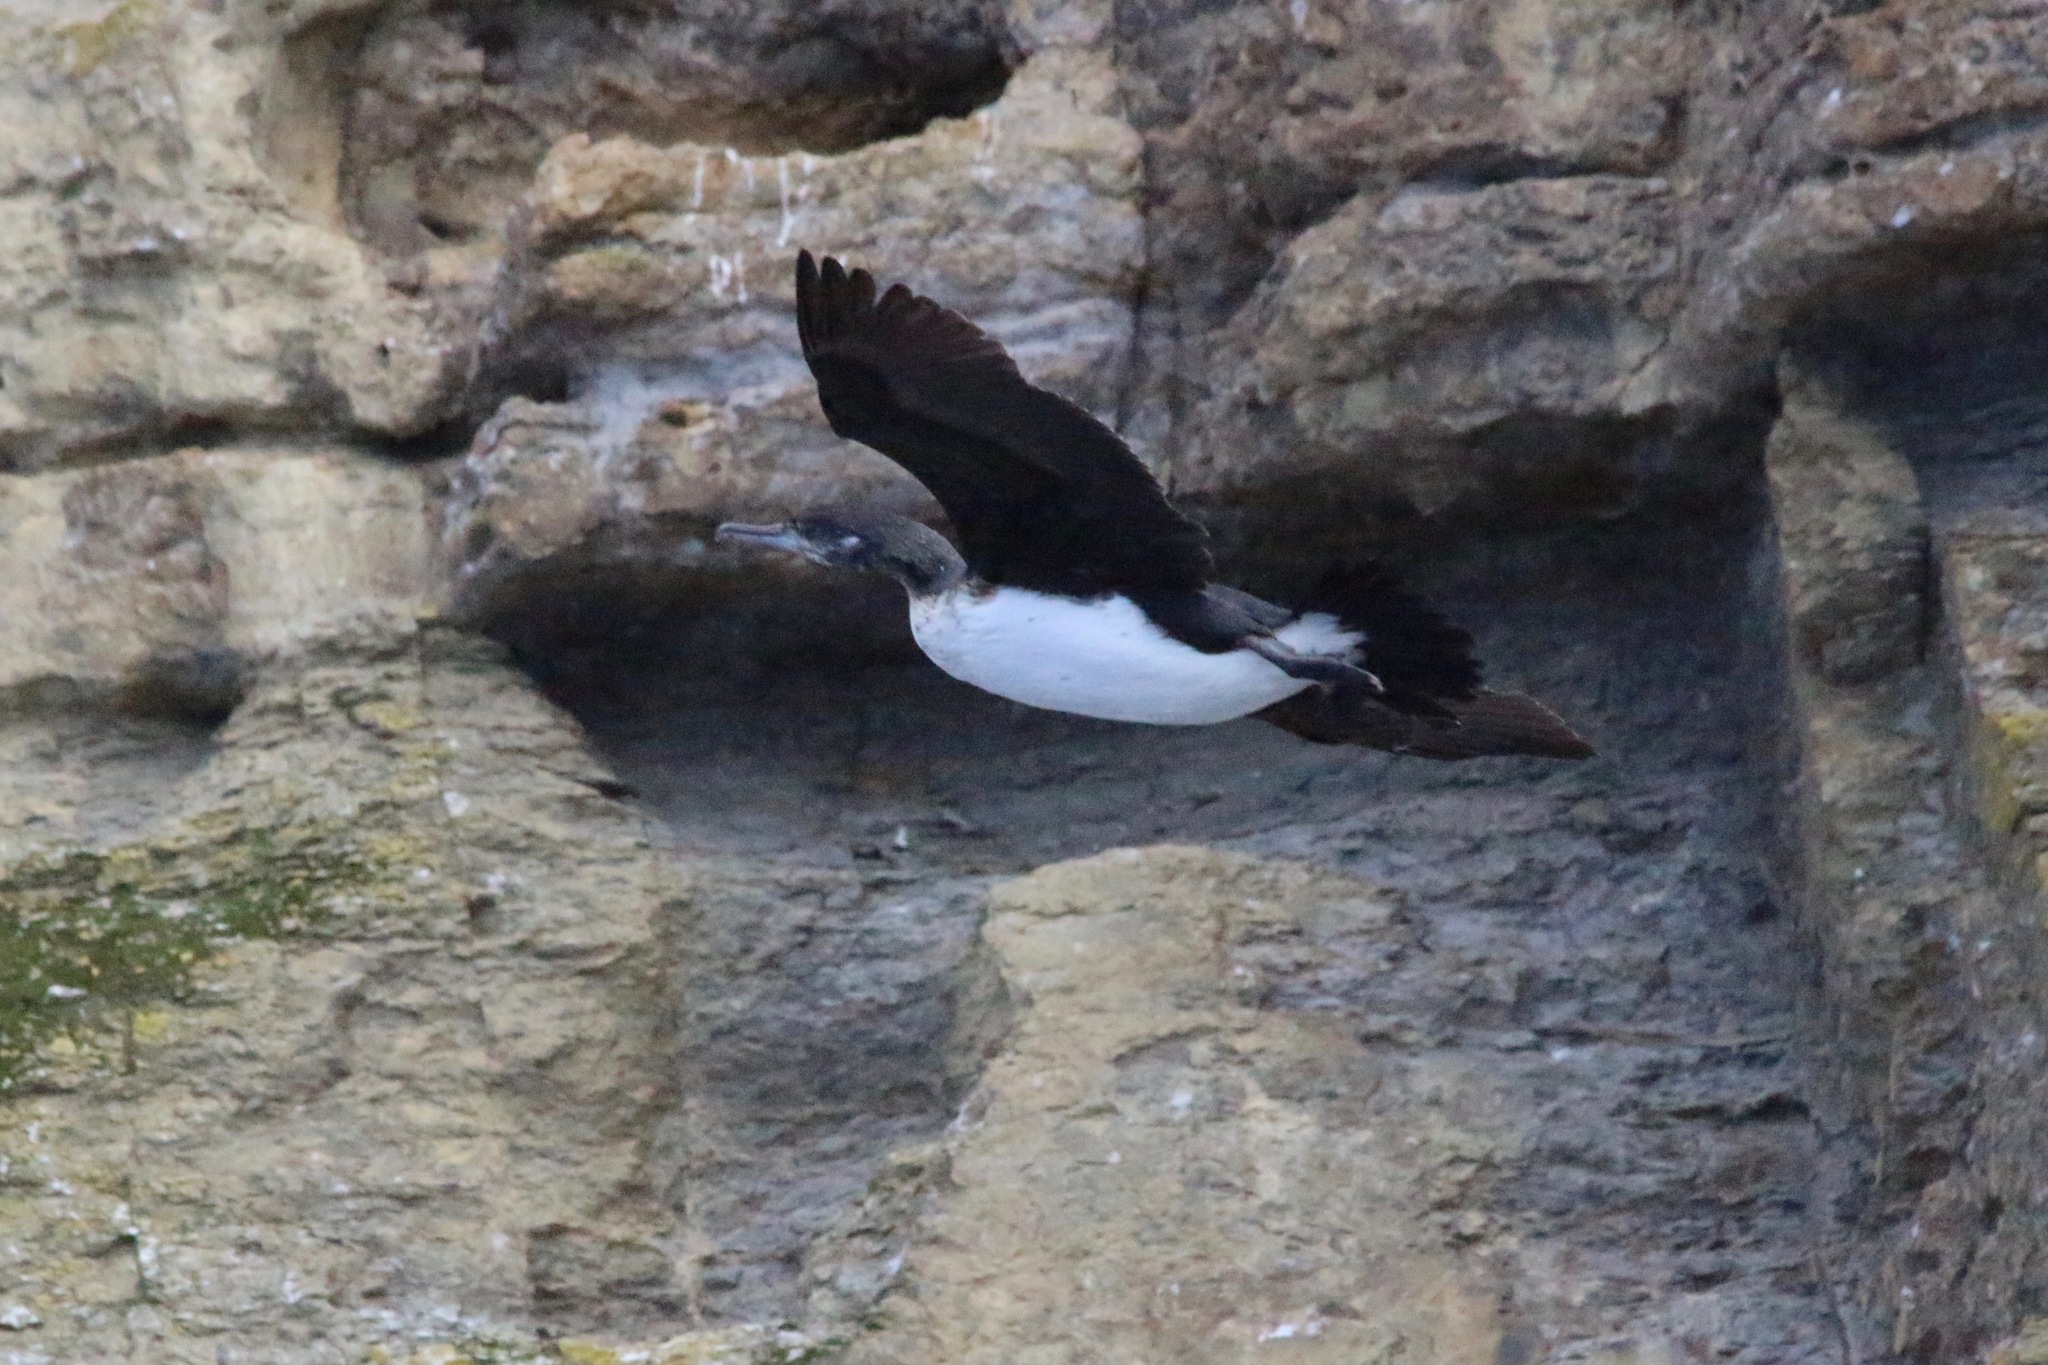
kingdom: Animalia
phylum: Chordata
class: Aves
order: Suliformes
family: Phalacrocoracidae
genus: Phalacrocorax
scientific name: Phalacrocorax fuscescens
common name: Black-faced cormorant
